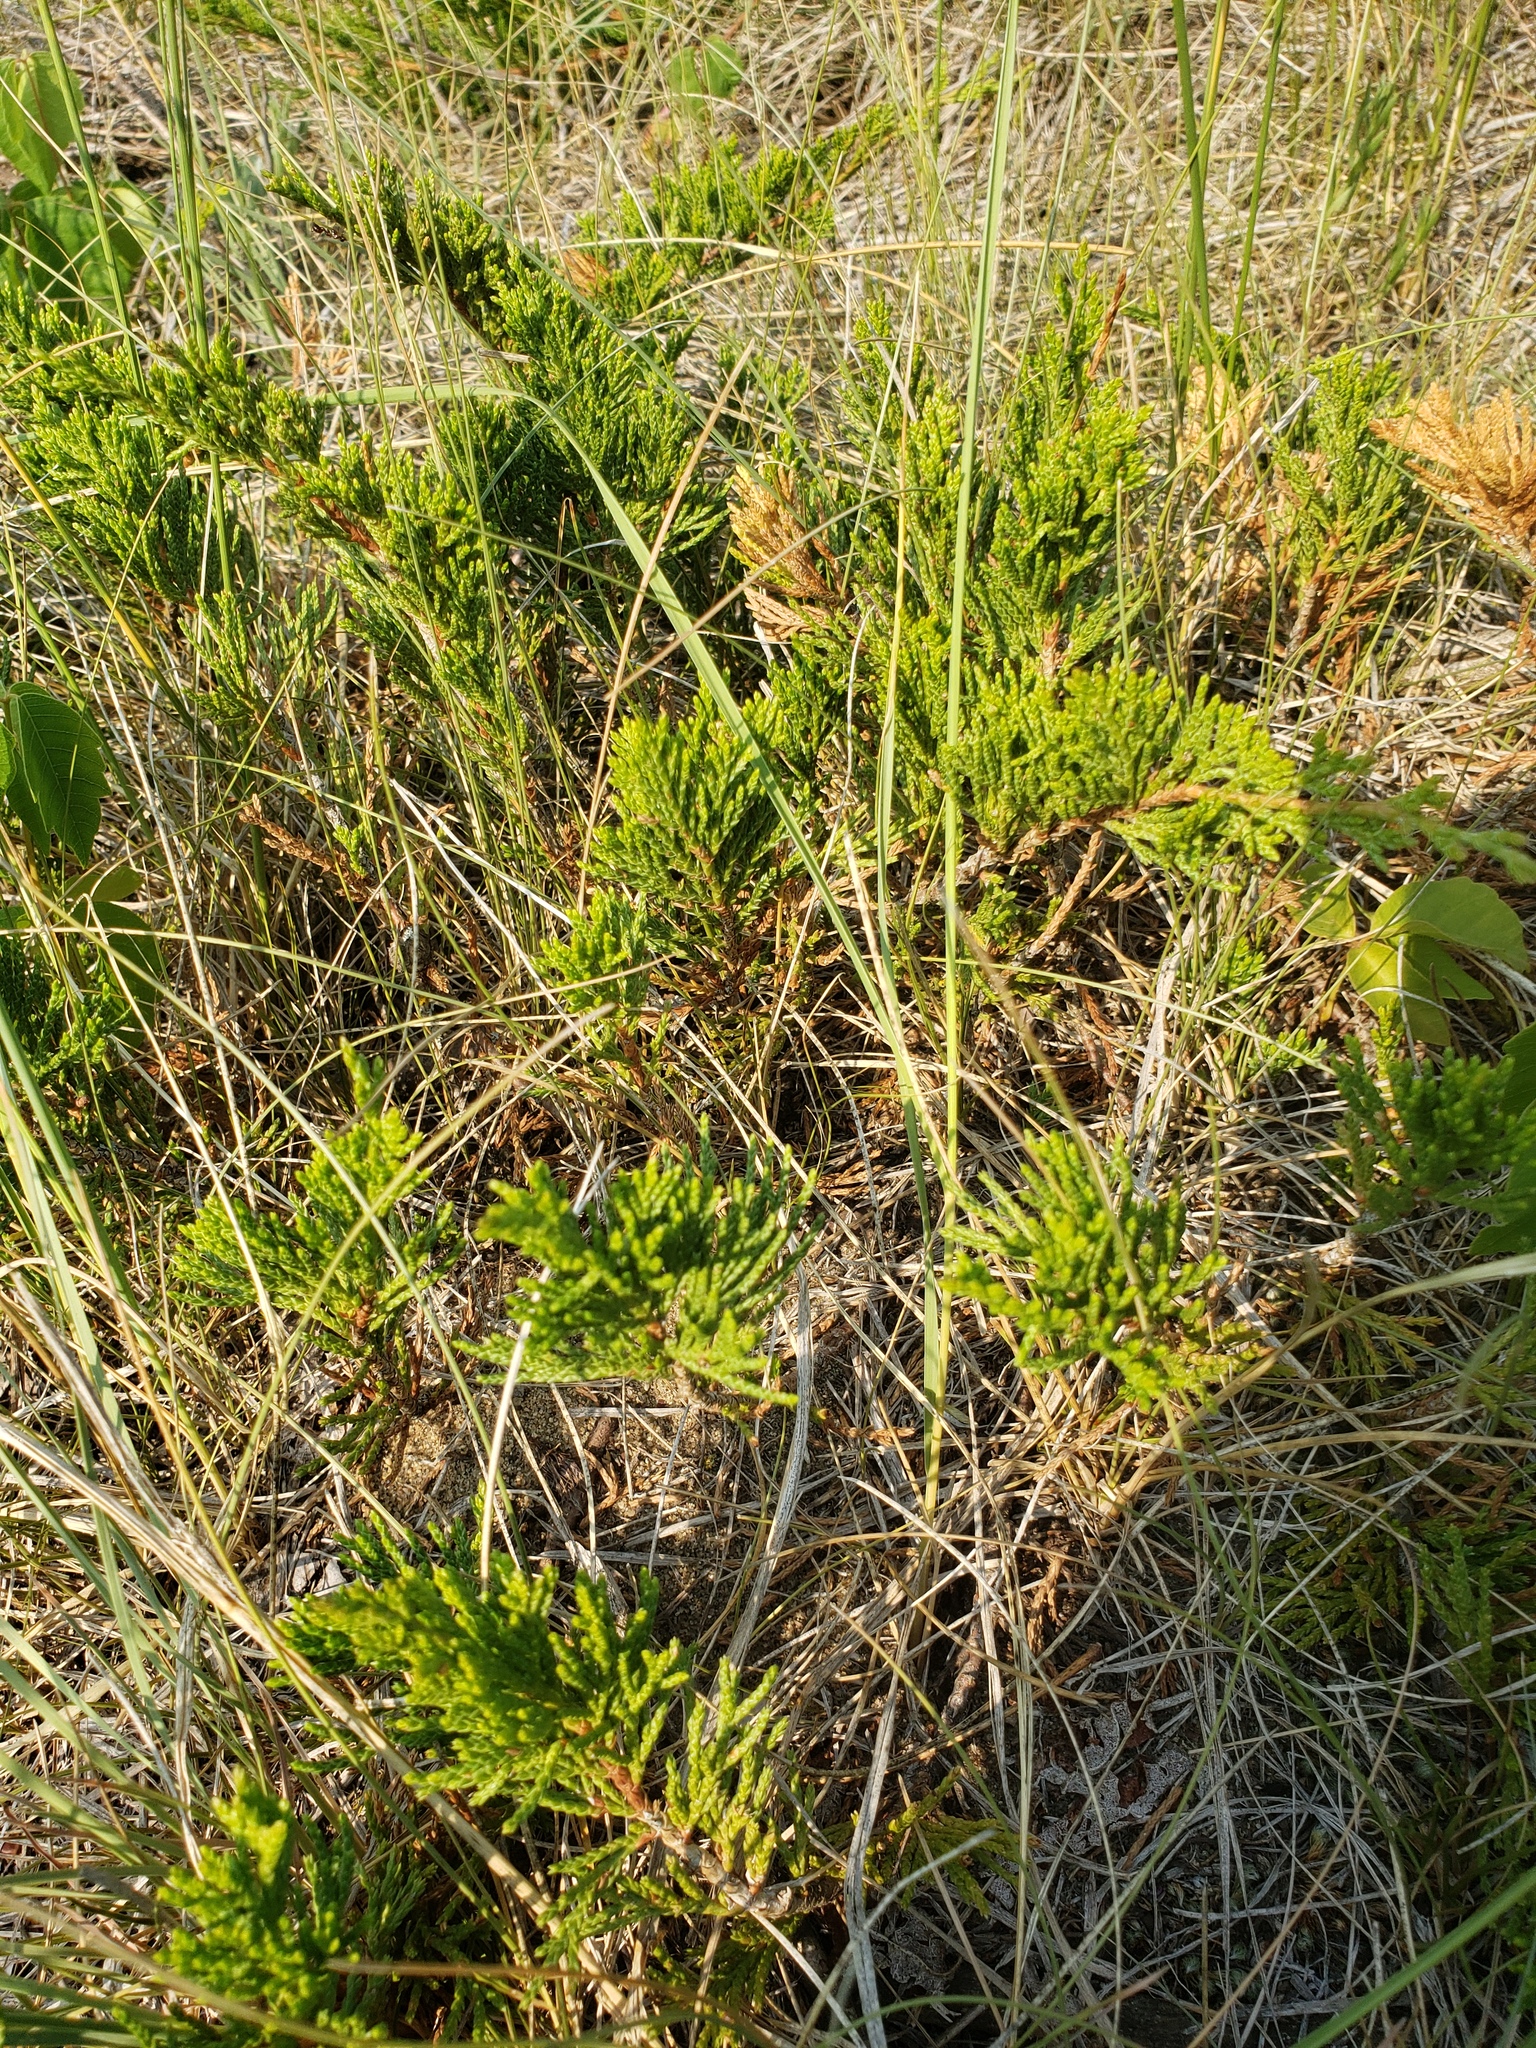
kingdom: Plantae
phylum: Tracheophyta
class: Pinopsida
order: Pinales
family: Cupressaceae
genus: Juniperus
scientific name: Juniperus horizontalis
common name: Creeping juniper
